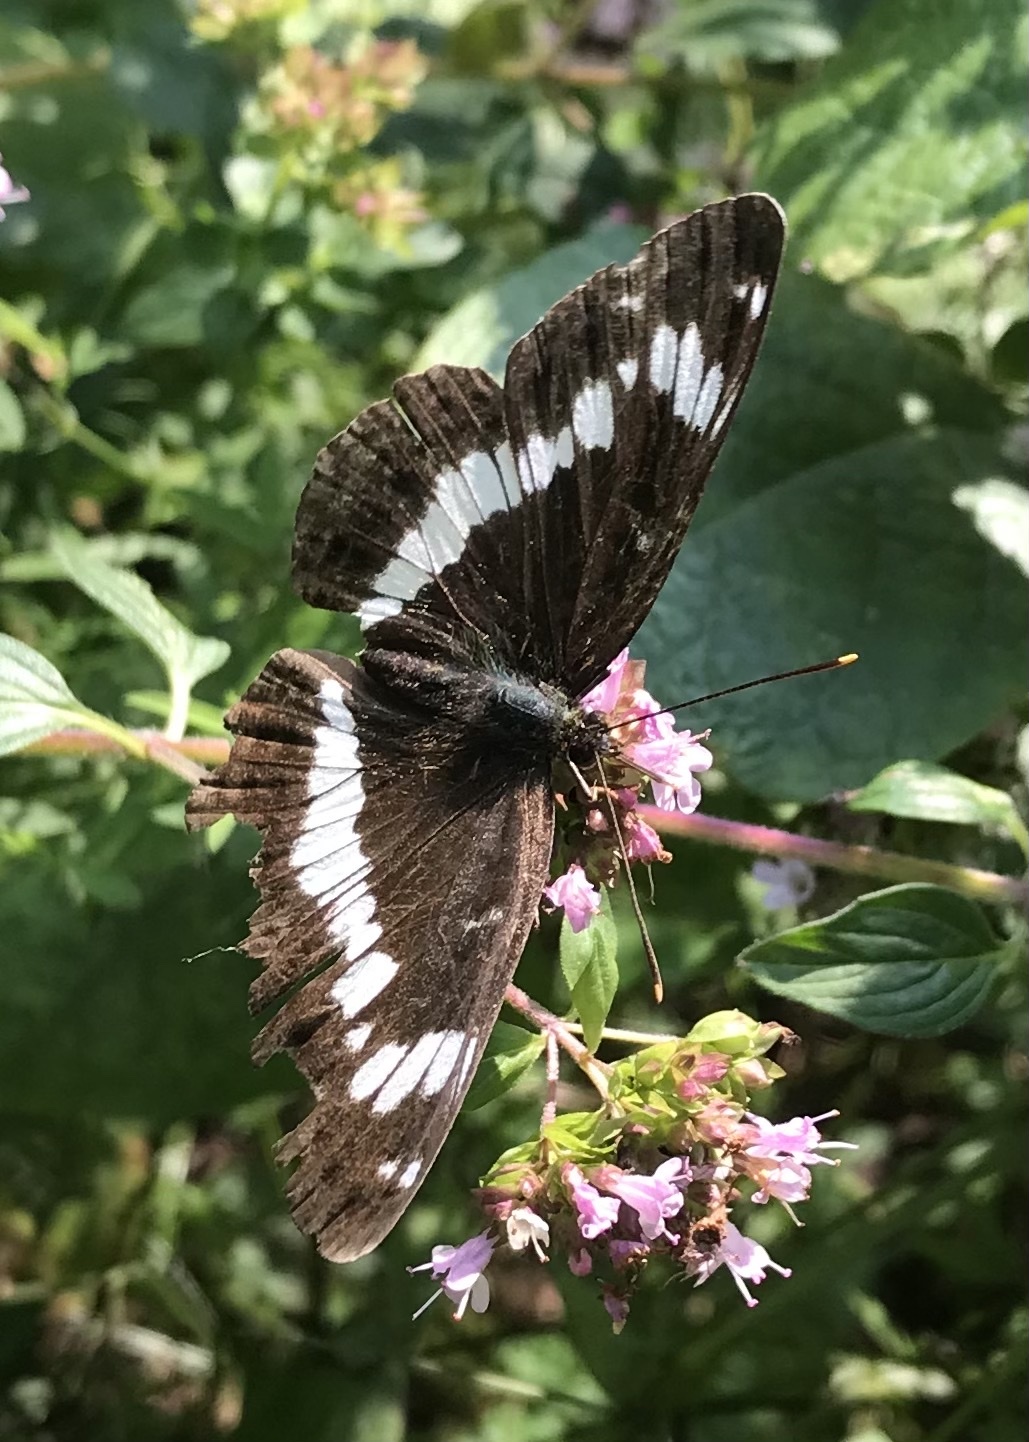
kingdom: Animalia
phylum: Arthropoda
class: Insecta
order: Lepidoptera
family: Nymphalidae
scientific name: Nymphalidae
